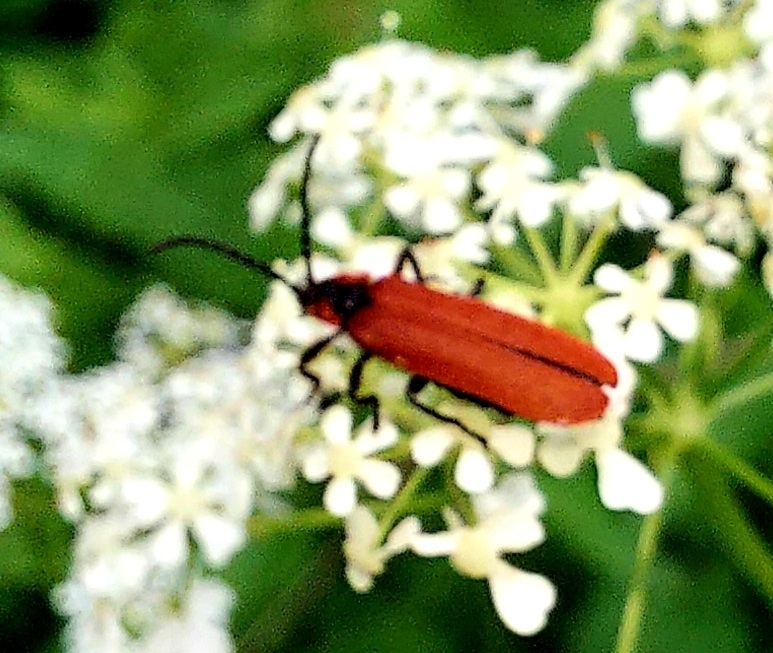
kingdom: Animalia
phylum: Arthropoda
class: Insecta
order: Coleoptera
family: Lycidae
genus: Lygistopterus
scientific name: Lygistopterus sanguineus
